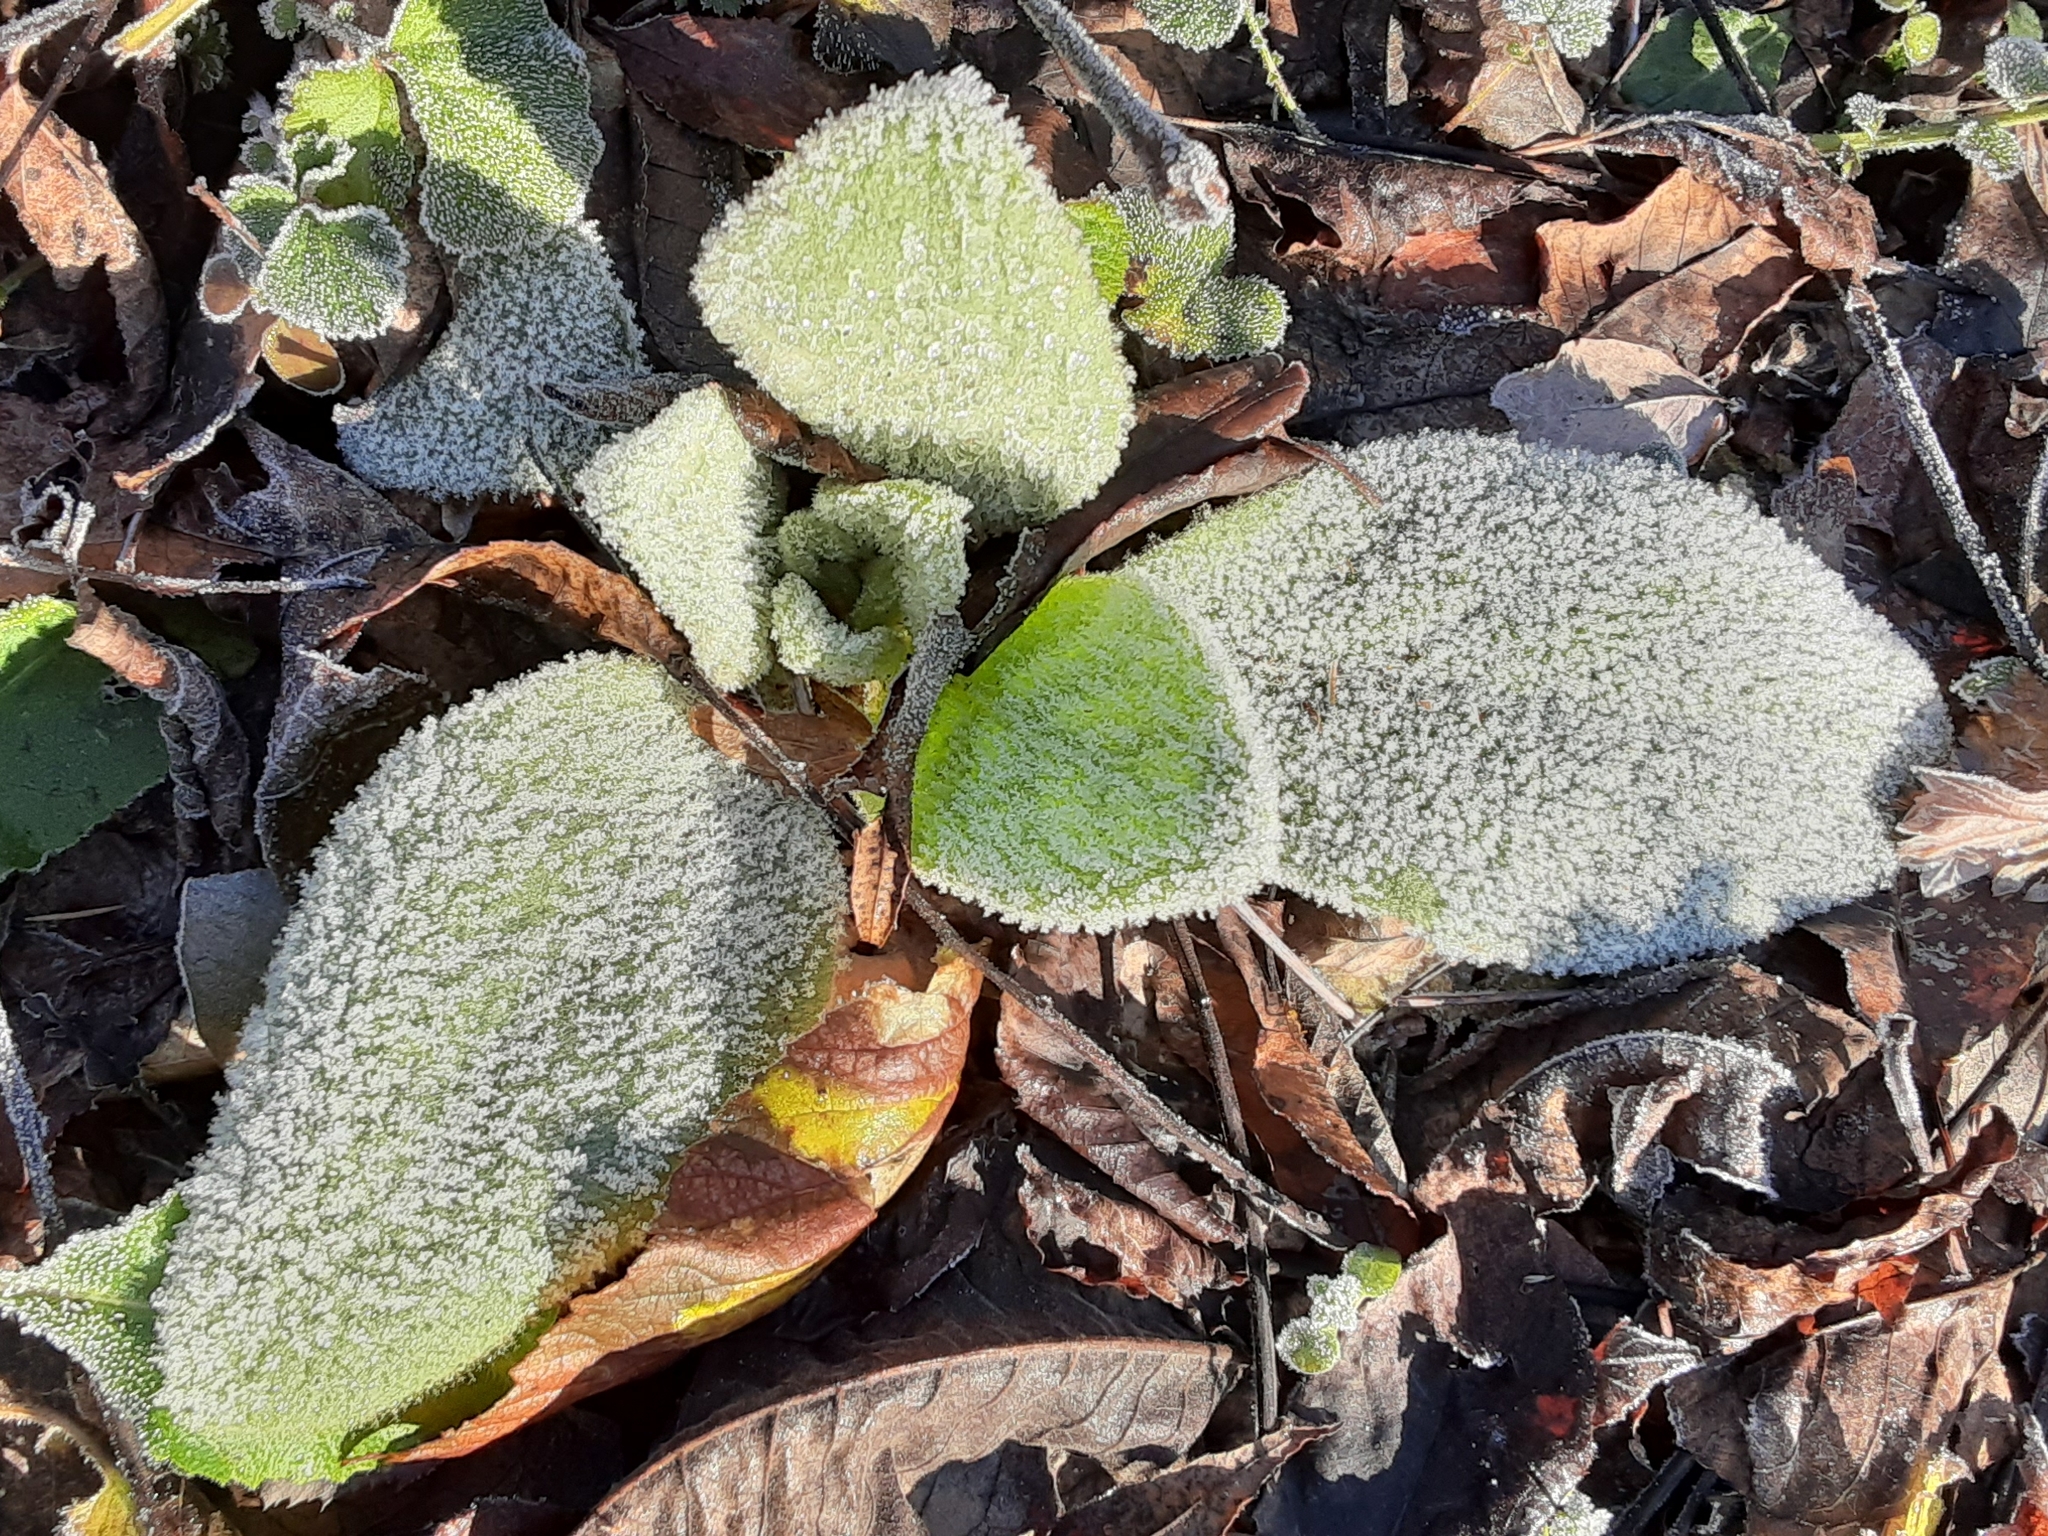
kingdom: Plantae
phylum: Tracheophyta
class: Magnoliopsida
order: Lamiales
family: Scrophulariaceae
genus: Verbascum
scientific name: Verbascum thapsus
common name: Common mullein
